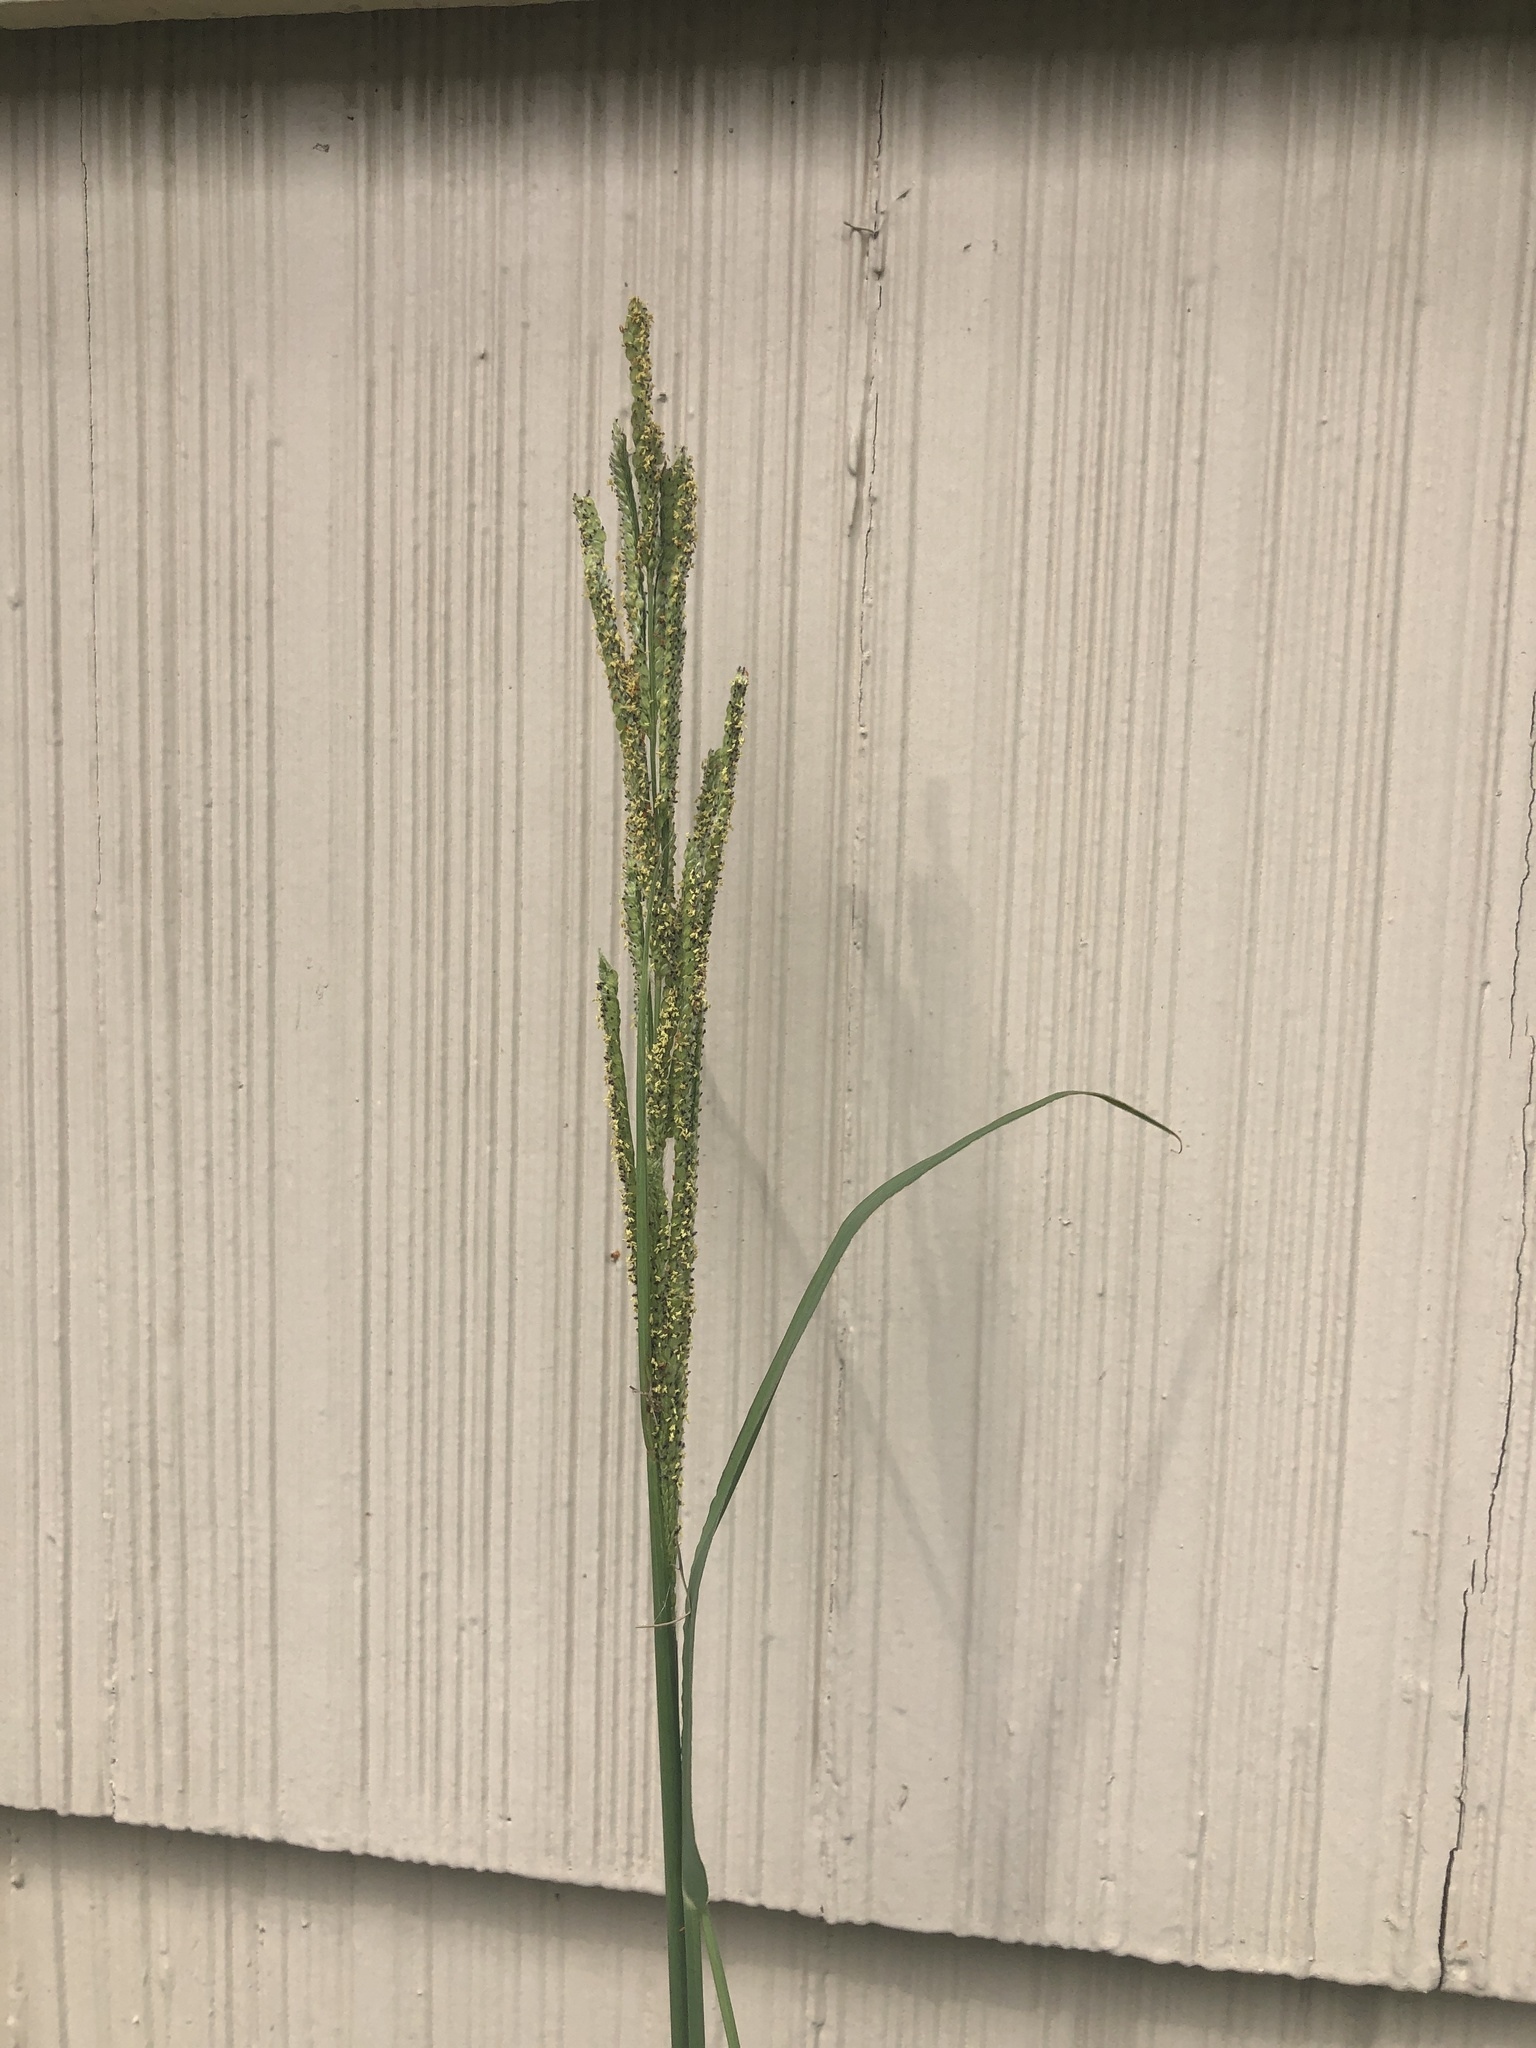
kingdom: Plantae
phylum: Tracheophyta
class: Liliopsida
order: Poales
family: Poaceae
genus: Paspalum
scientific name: Paspalum urvillei
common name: Vasey's grass
